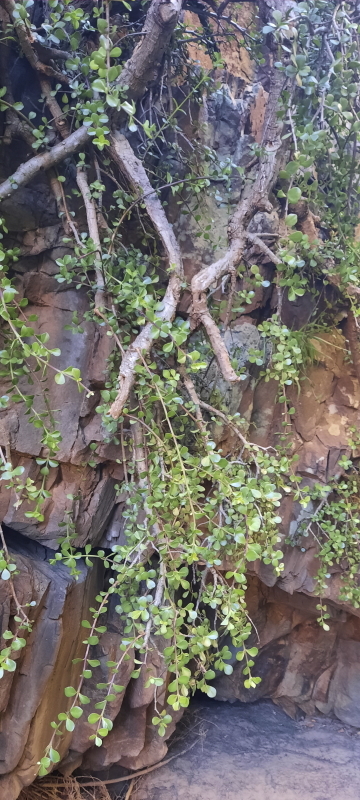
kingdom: Plantae
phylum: Tracheophyta
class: Magnoliopsida
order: Caryophyllales
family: Didiereaceae
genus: Portulacaria
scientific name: Portulacaria afra
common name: Elephant-bush
